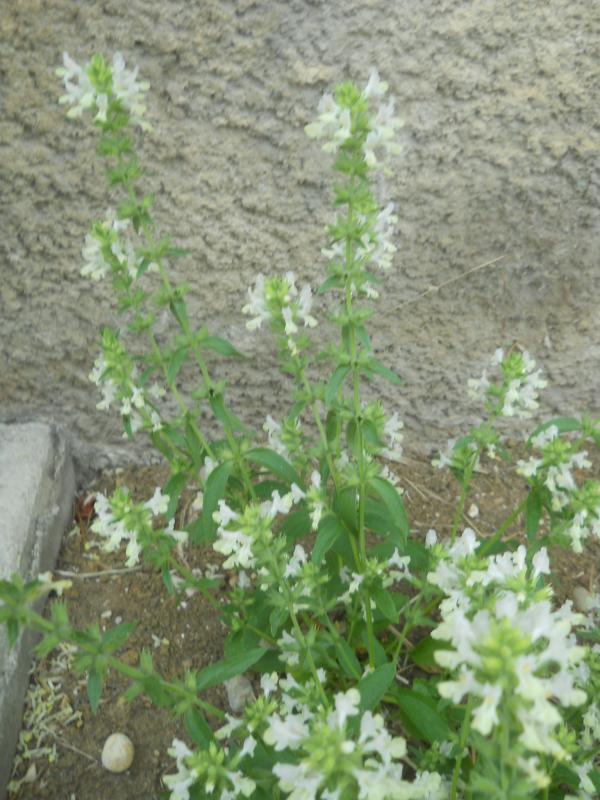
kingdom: Plantae
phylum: Tracheophyta
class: Magnoliopsida
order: Lamiales
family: Lamiaceae
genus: Stachys
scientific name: Stachys annua
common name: Annual yellow-woundwort
